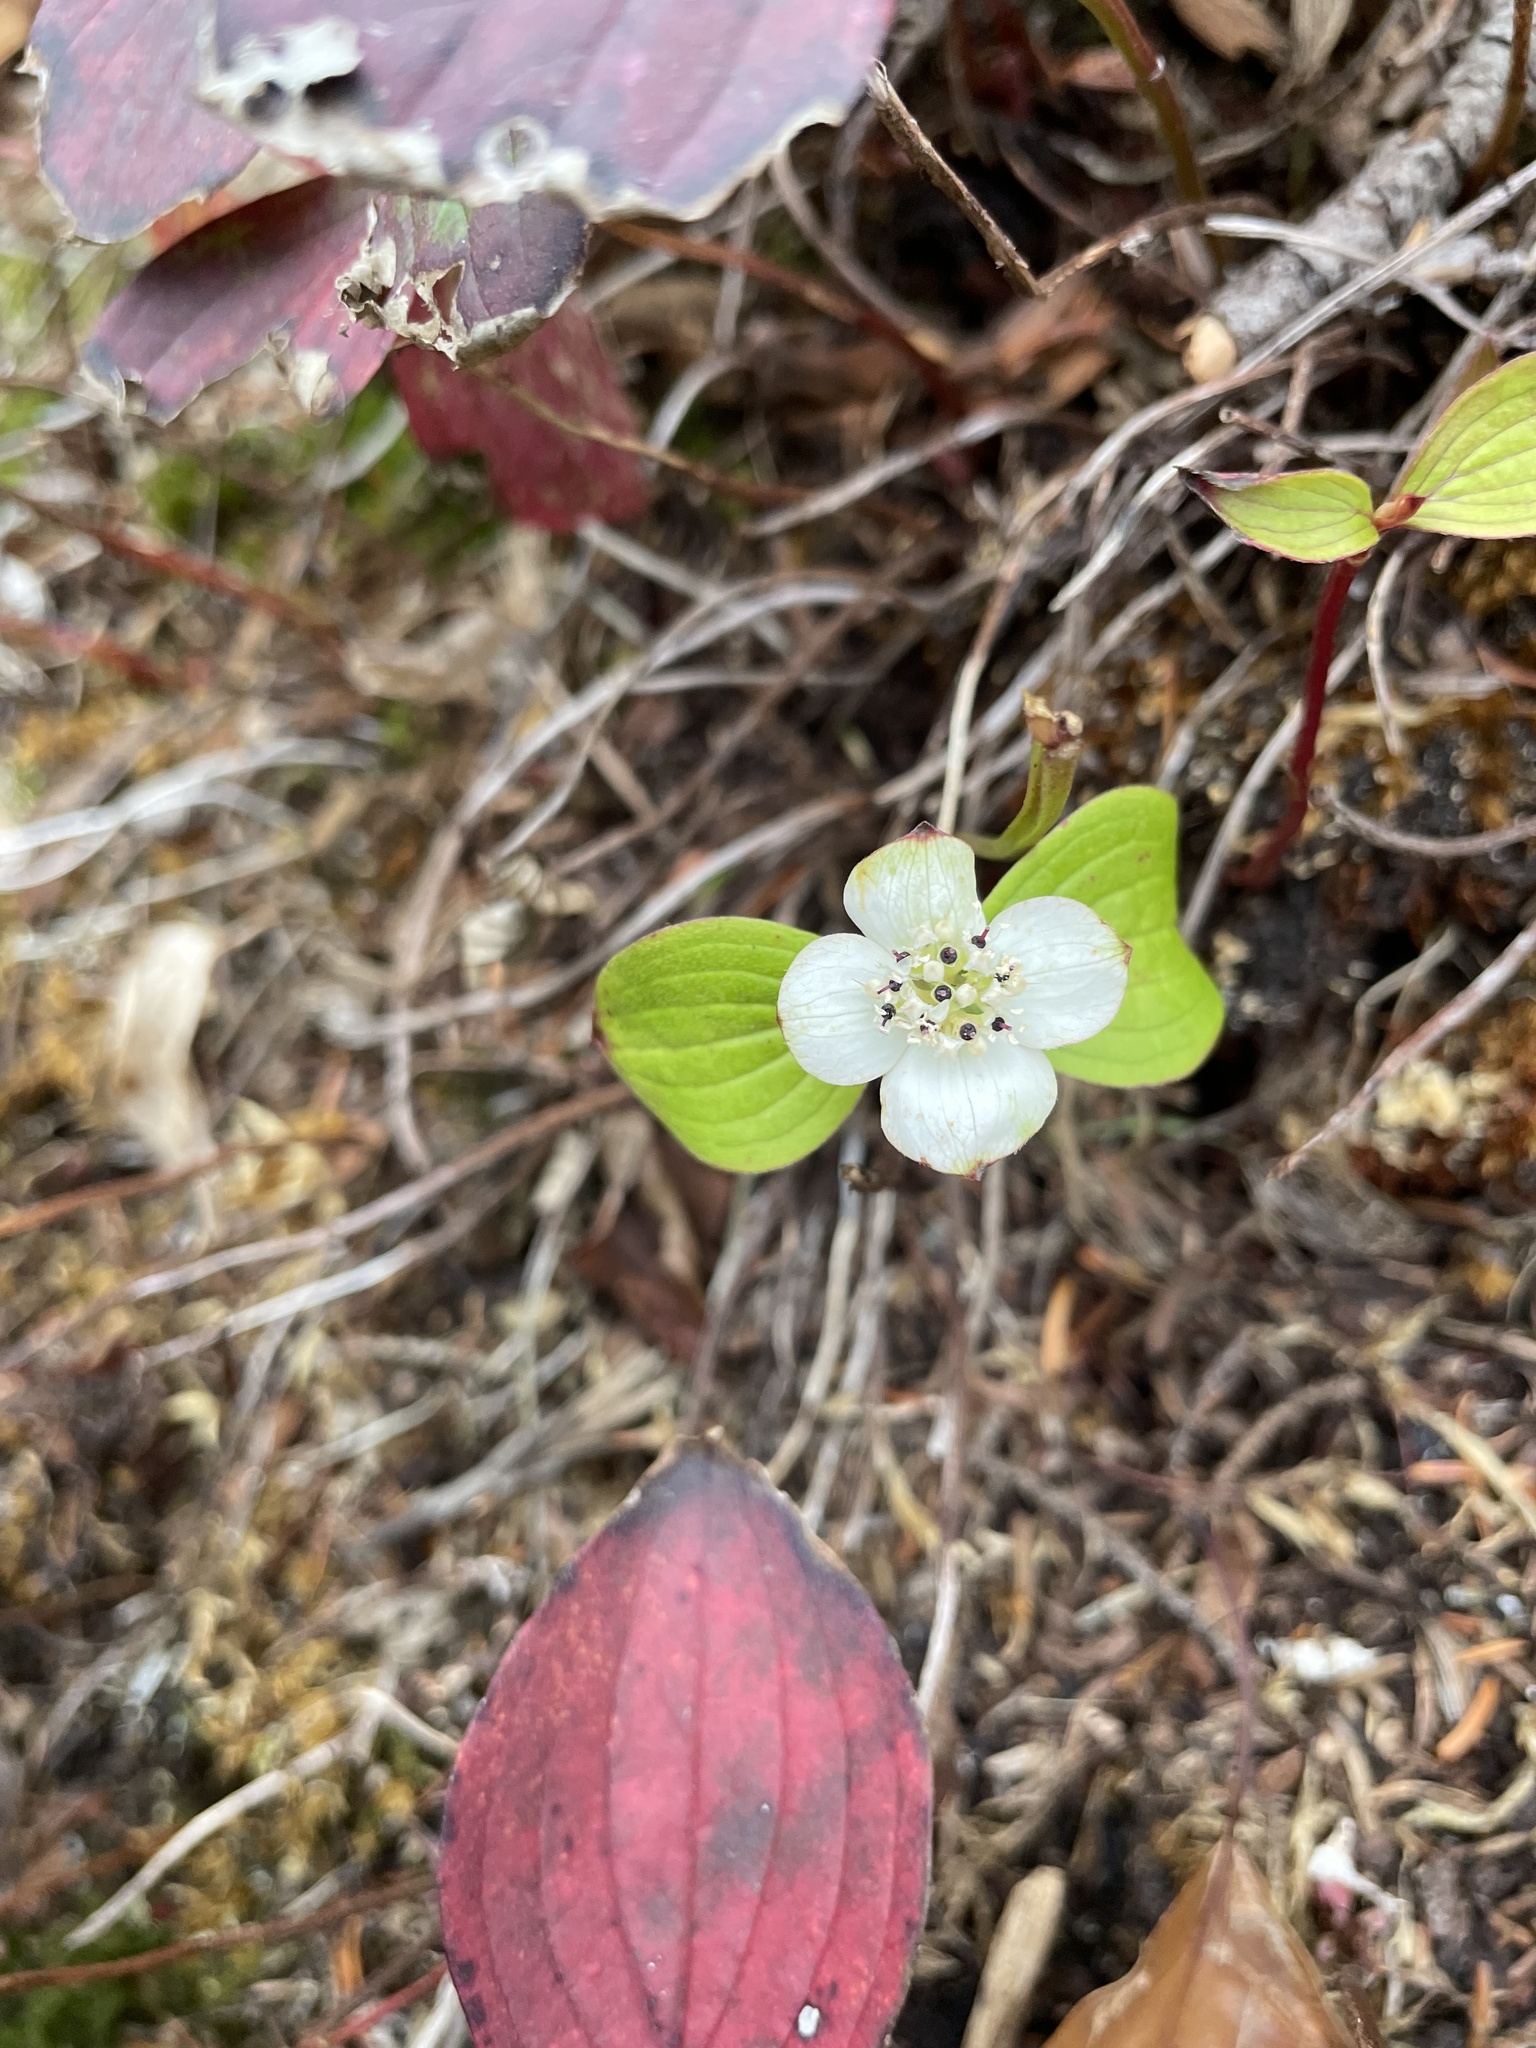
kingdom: Plantae
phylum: Tracheophyta
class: Magnoliopsida
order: Cornales
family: Cornaceae
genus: Cornus
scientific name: Cornus canadensis
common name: Creeping dogwood
